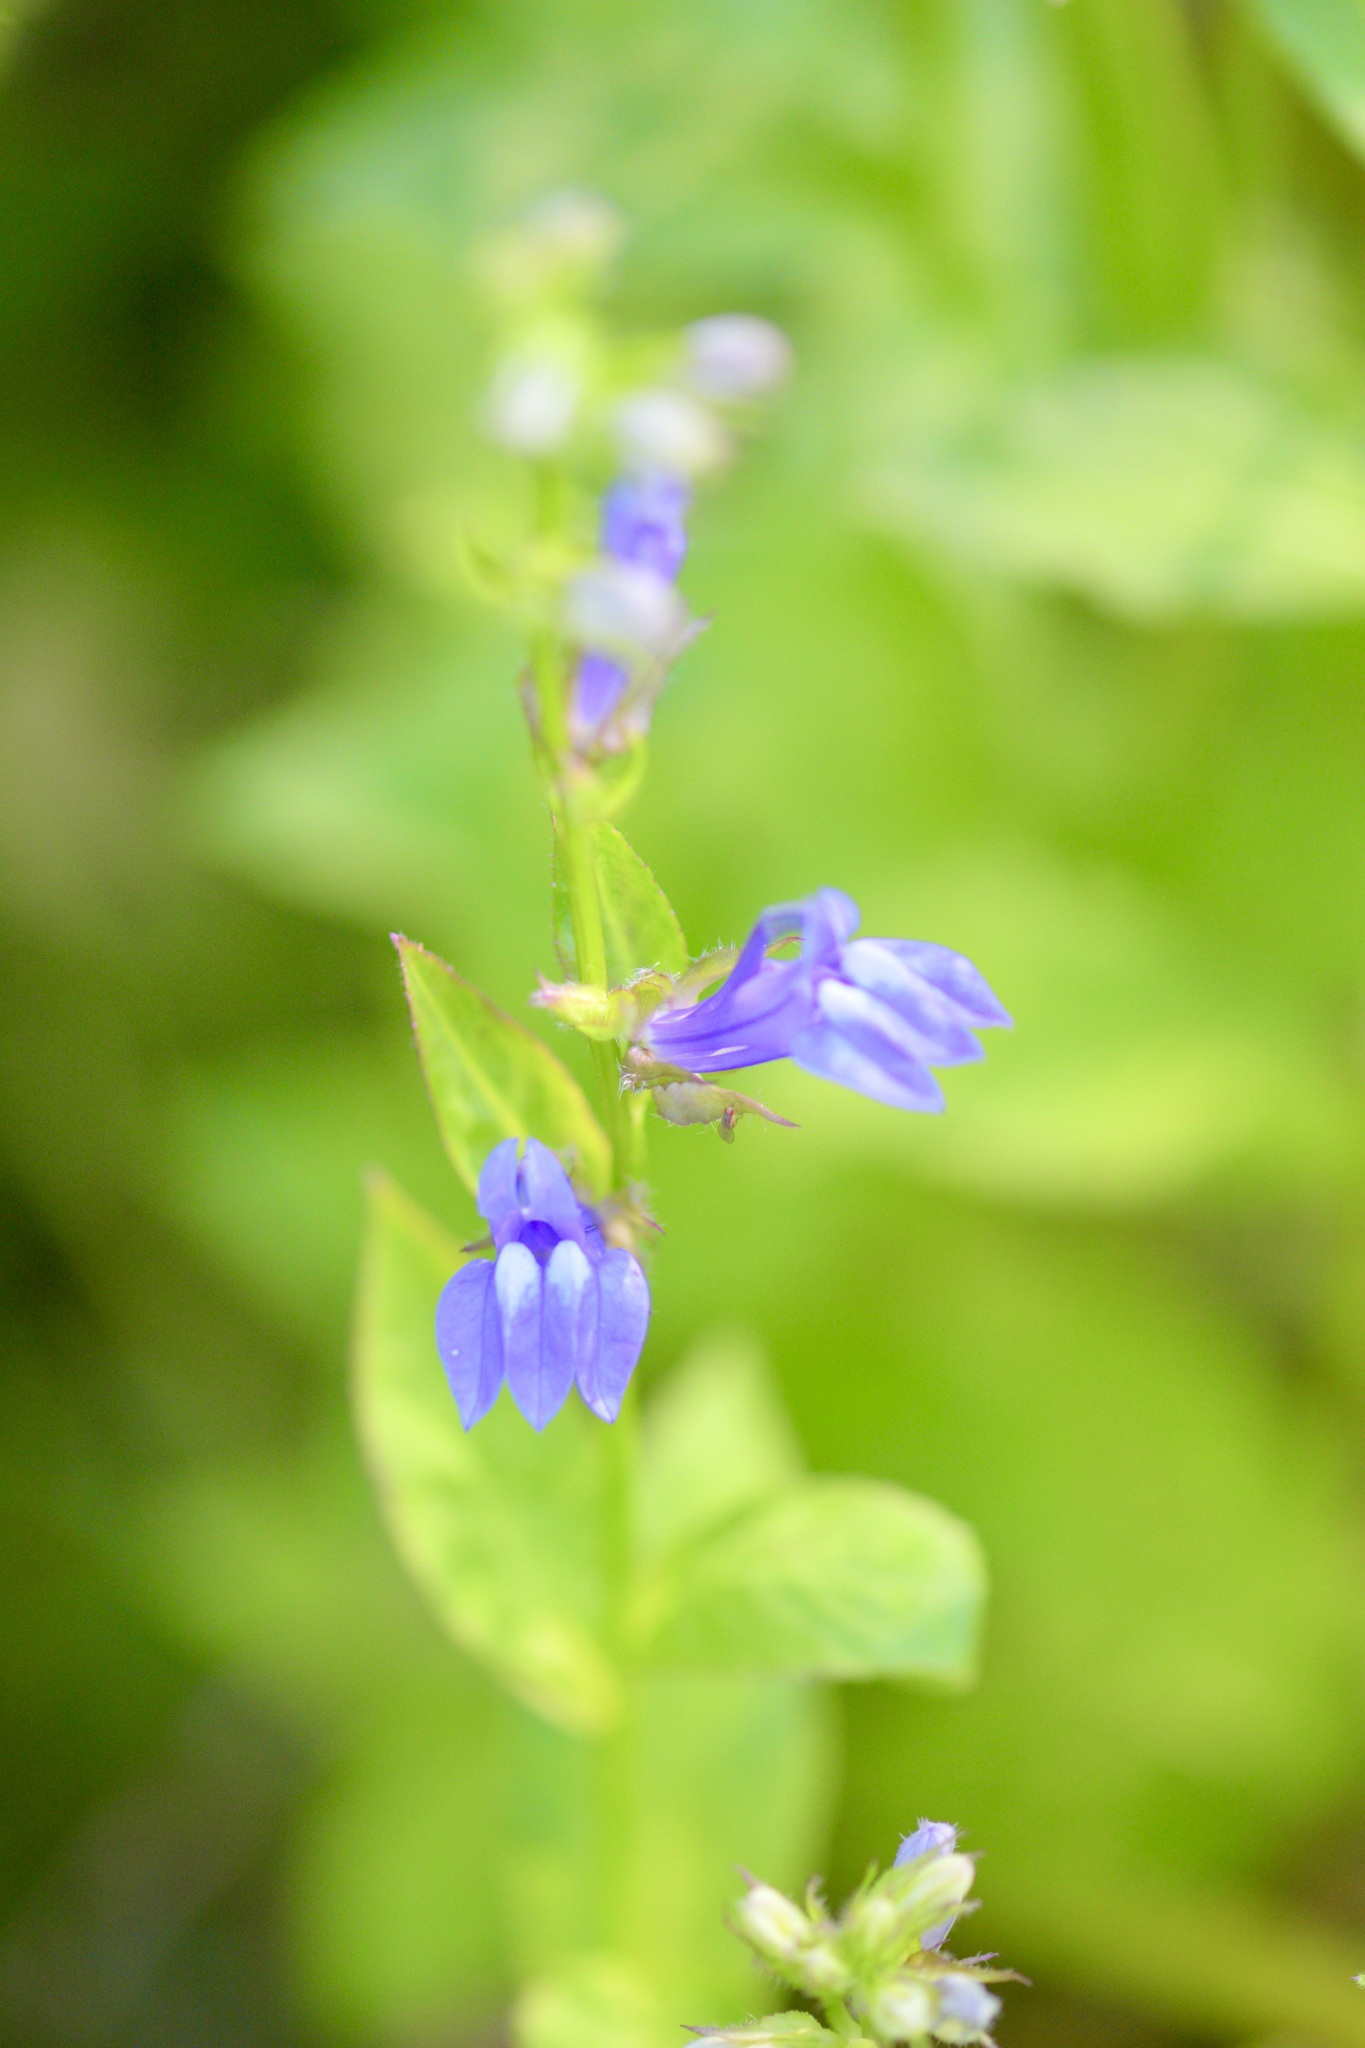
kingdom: Plantae
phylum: Tracheophyta
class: Magnoliopsida
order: Asterales
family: Campanulaceae
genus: Lobelia
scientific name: Lobelia siphilitica
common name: Great lobelia
